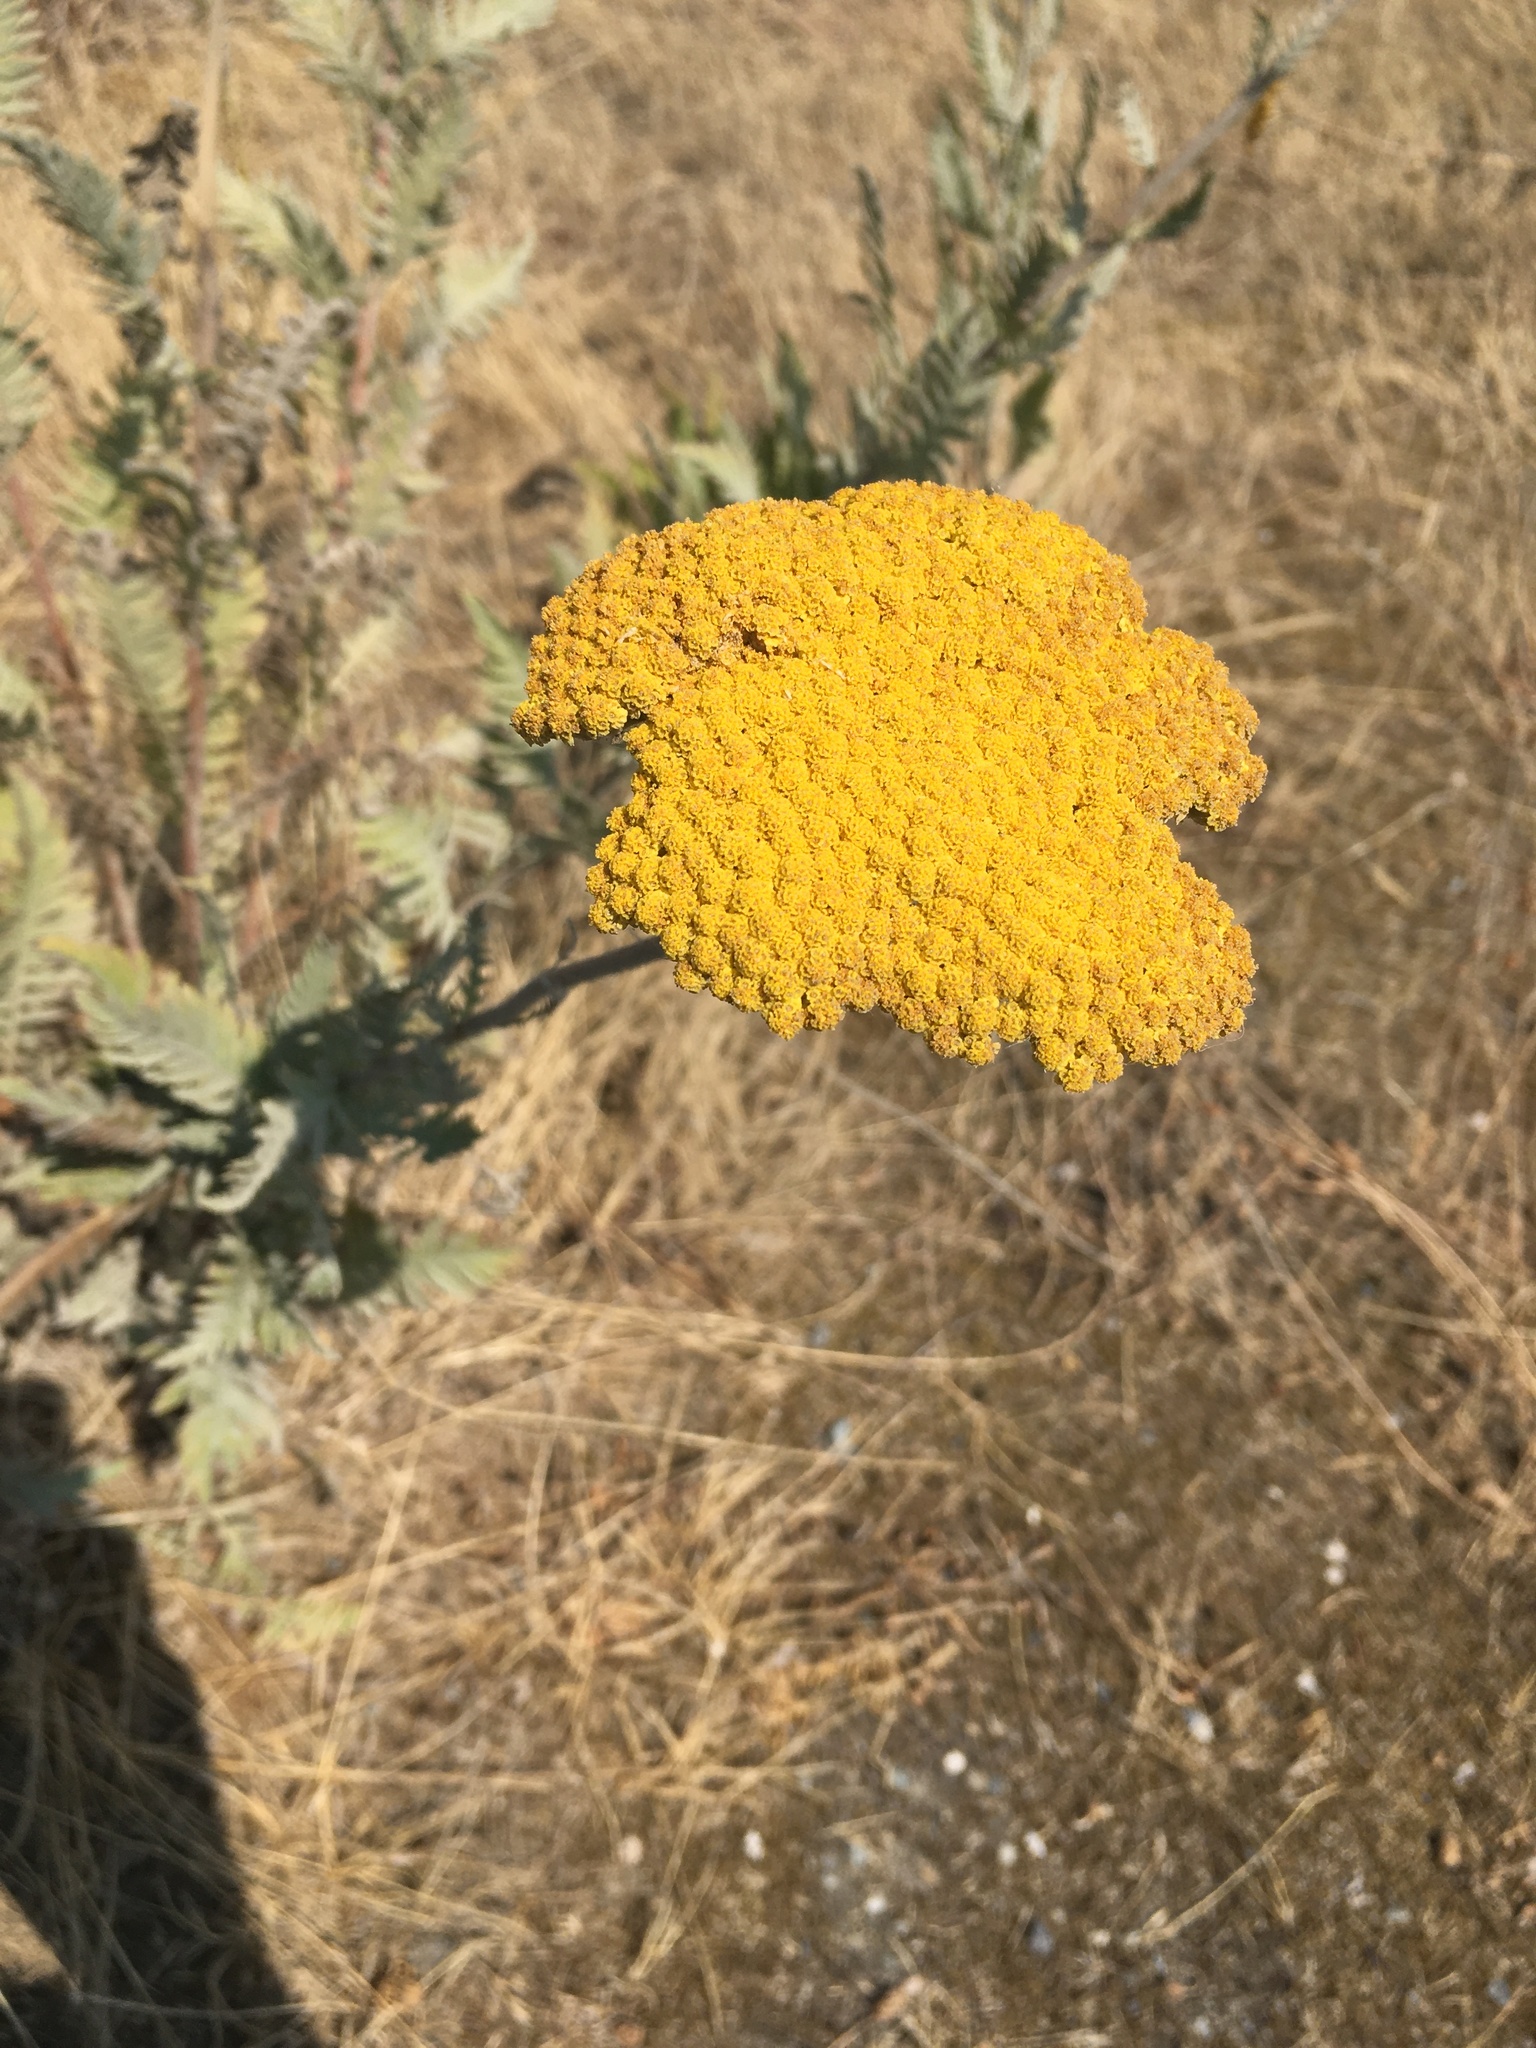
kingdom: Plantae
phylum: Tracheophyta
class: Magnoliopsida
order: Asterales
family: Asteraceae
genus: Achillea
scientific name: Achillea filipendulina
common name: Fernleaf yarrow
